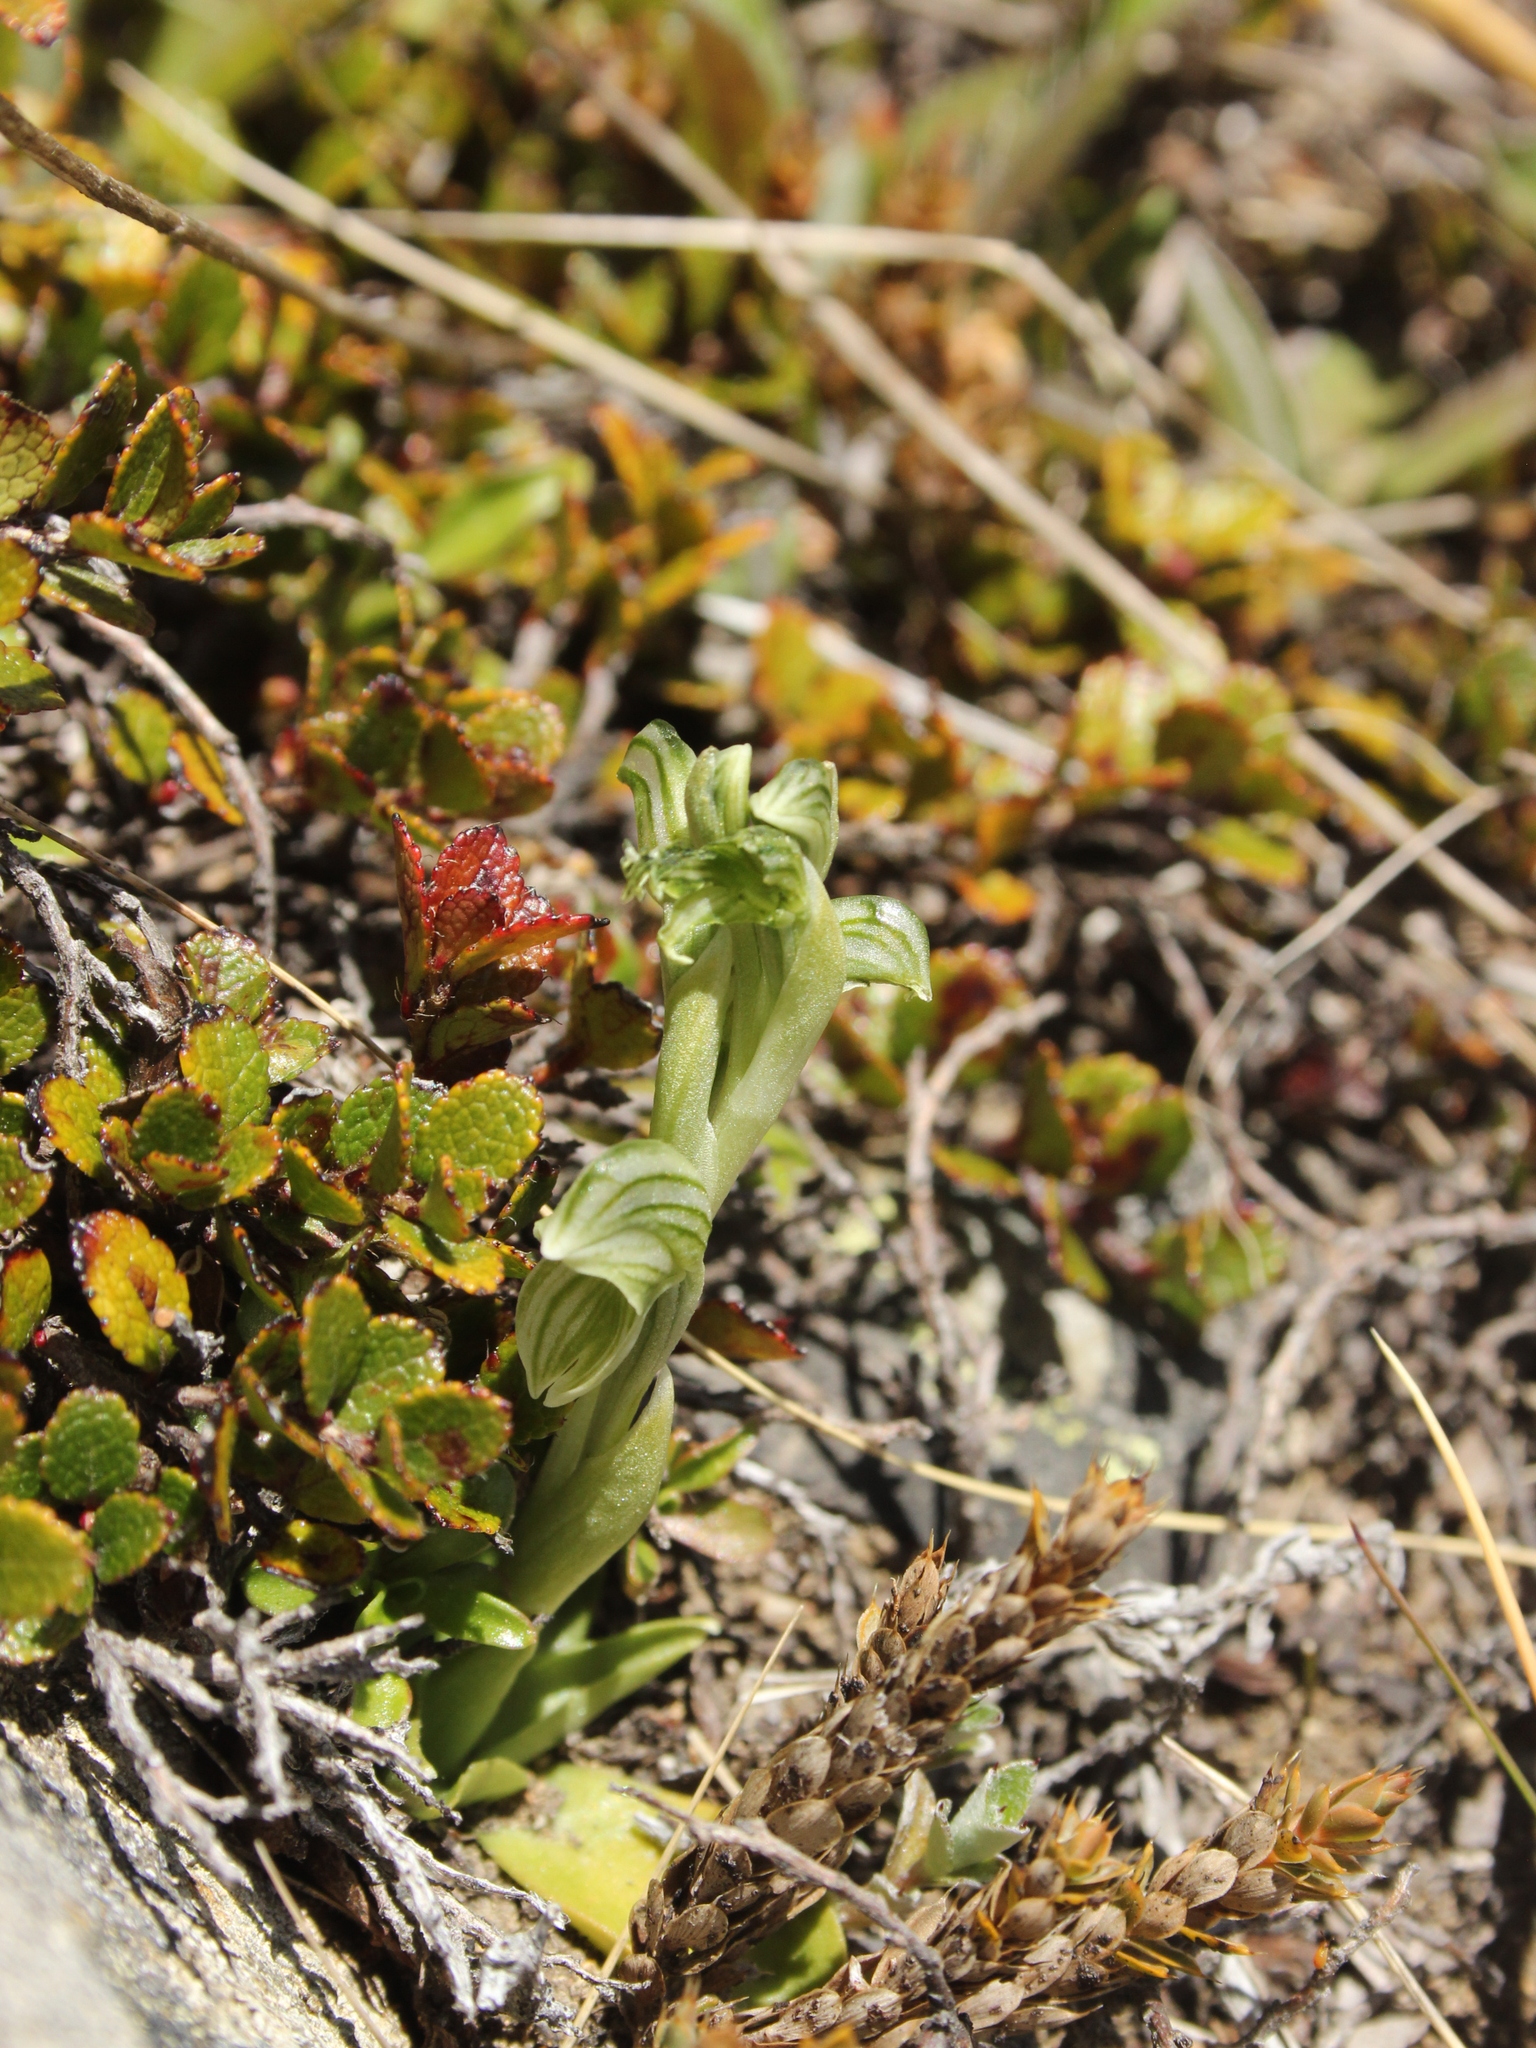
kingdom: Plantae
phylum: Tracheophyta
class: Liliopsida
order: Asparagales
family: Orchidaceae
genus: Pterostylis
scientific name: Pterostylis tanypoda
